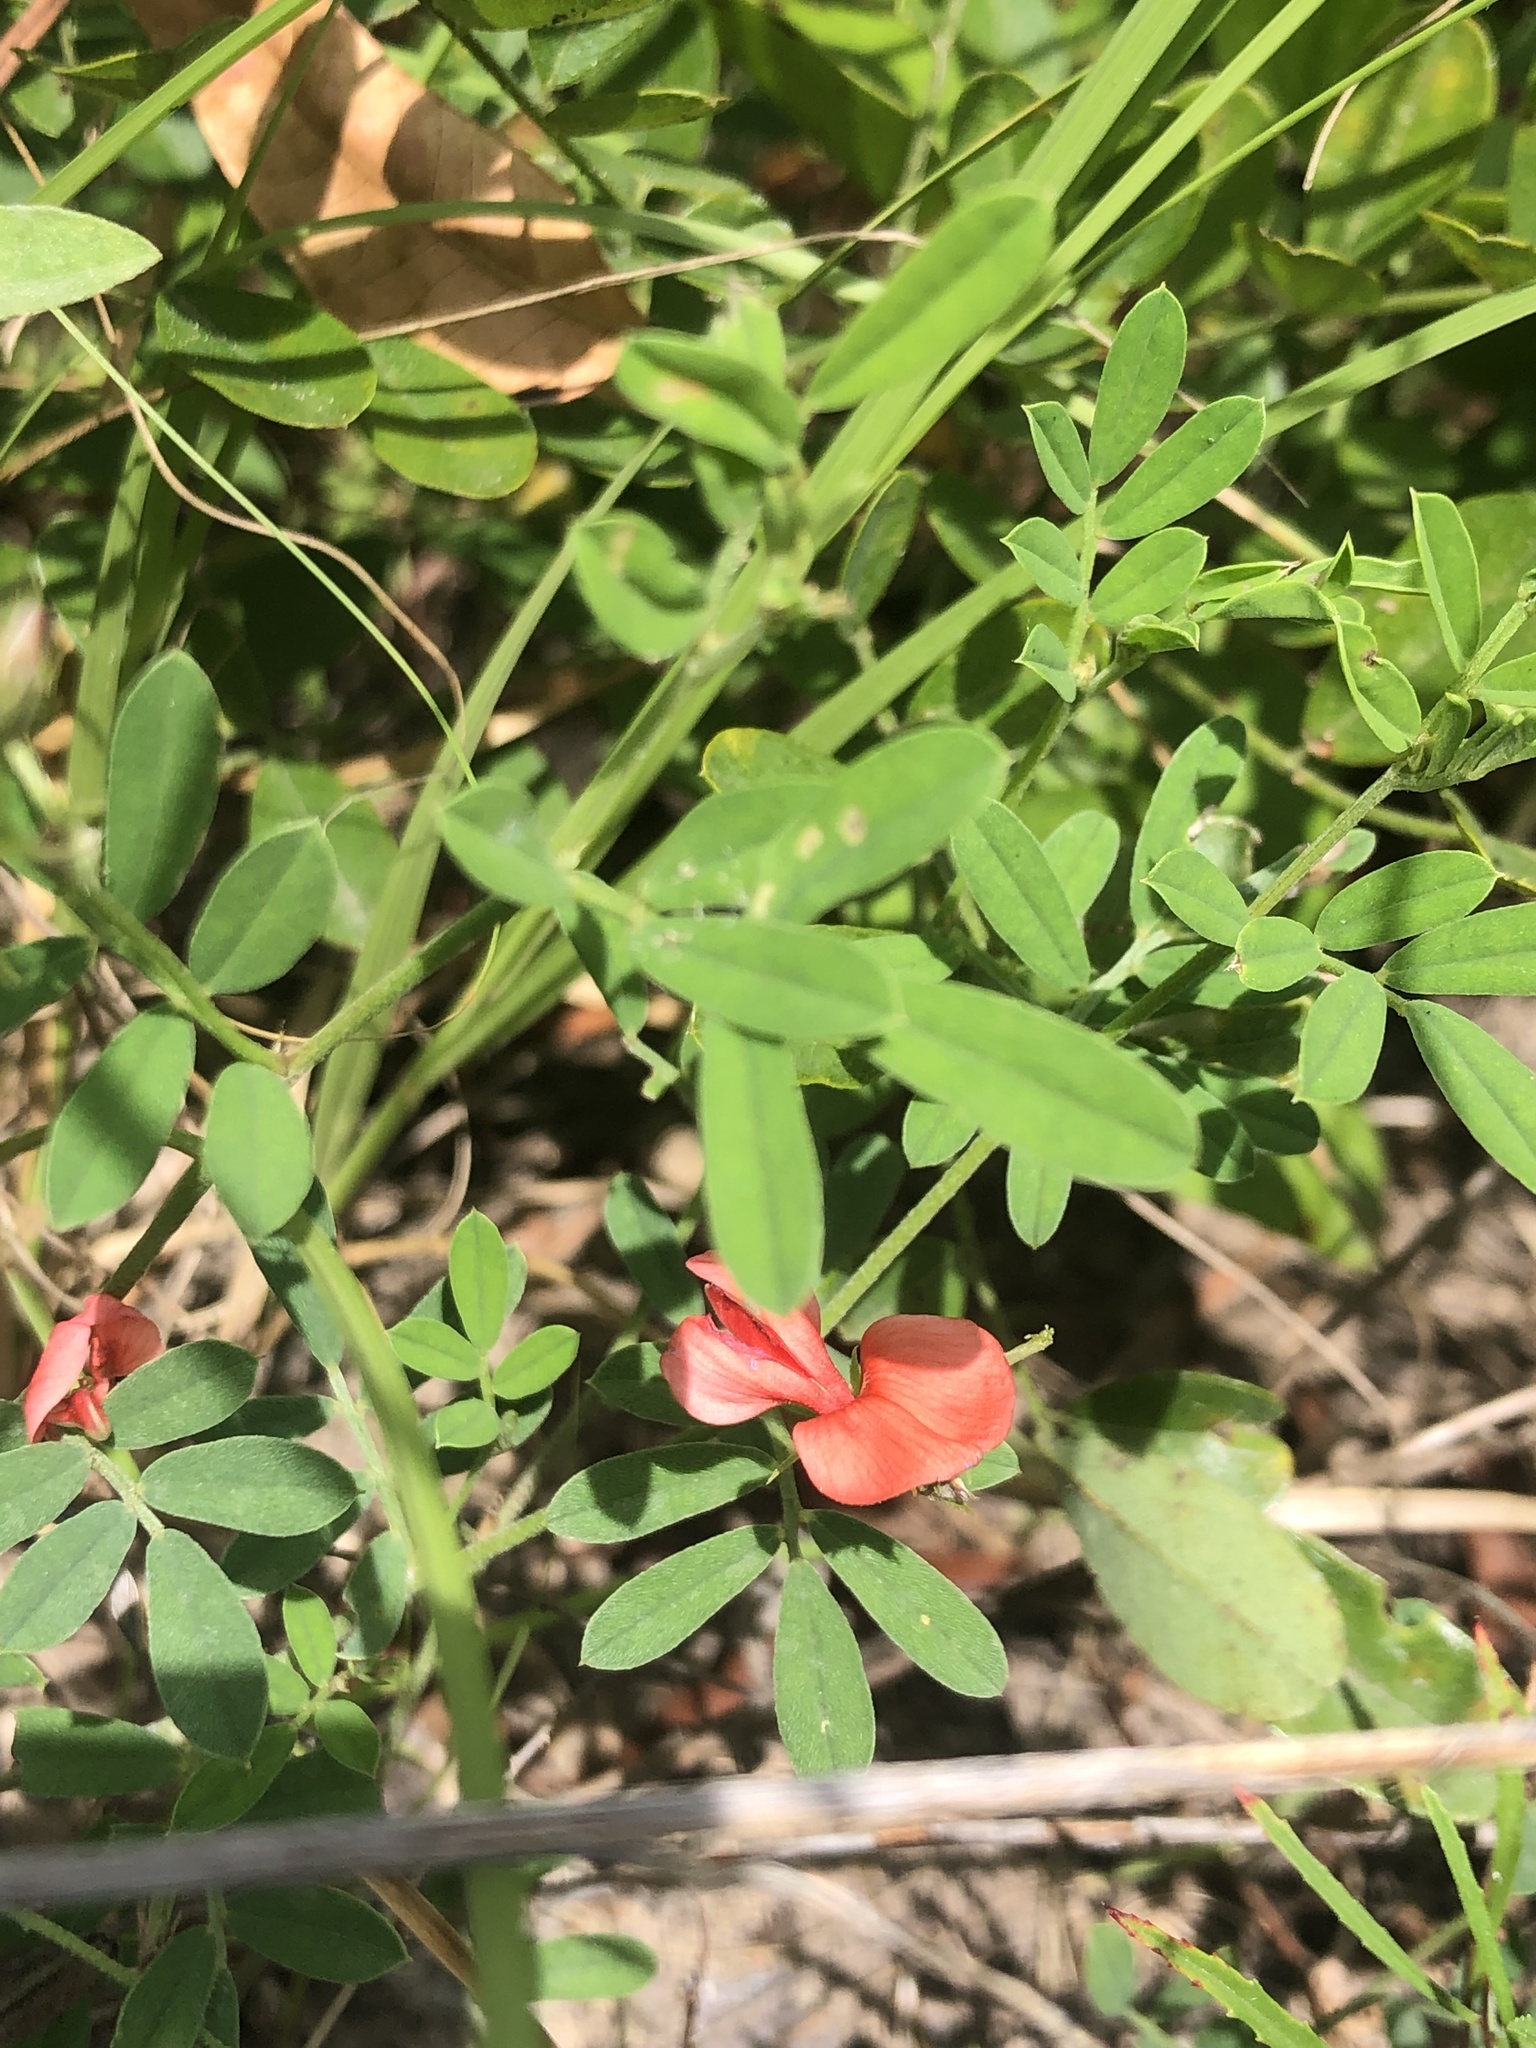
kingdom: Plantae
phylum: Tracheophyta
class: Magnoliopsida
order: Fabales
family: Fabaceae
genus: Indigofera
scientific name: Indigofera miniata
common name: Coast indigo
